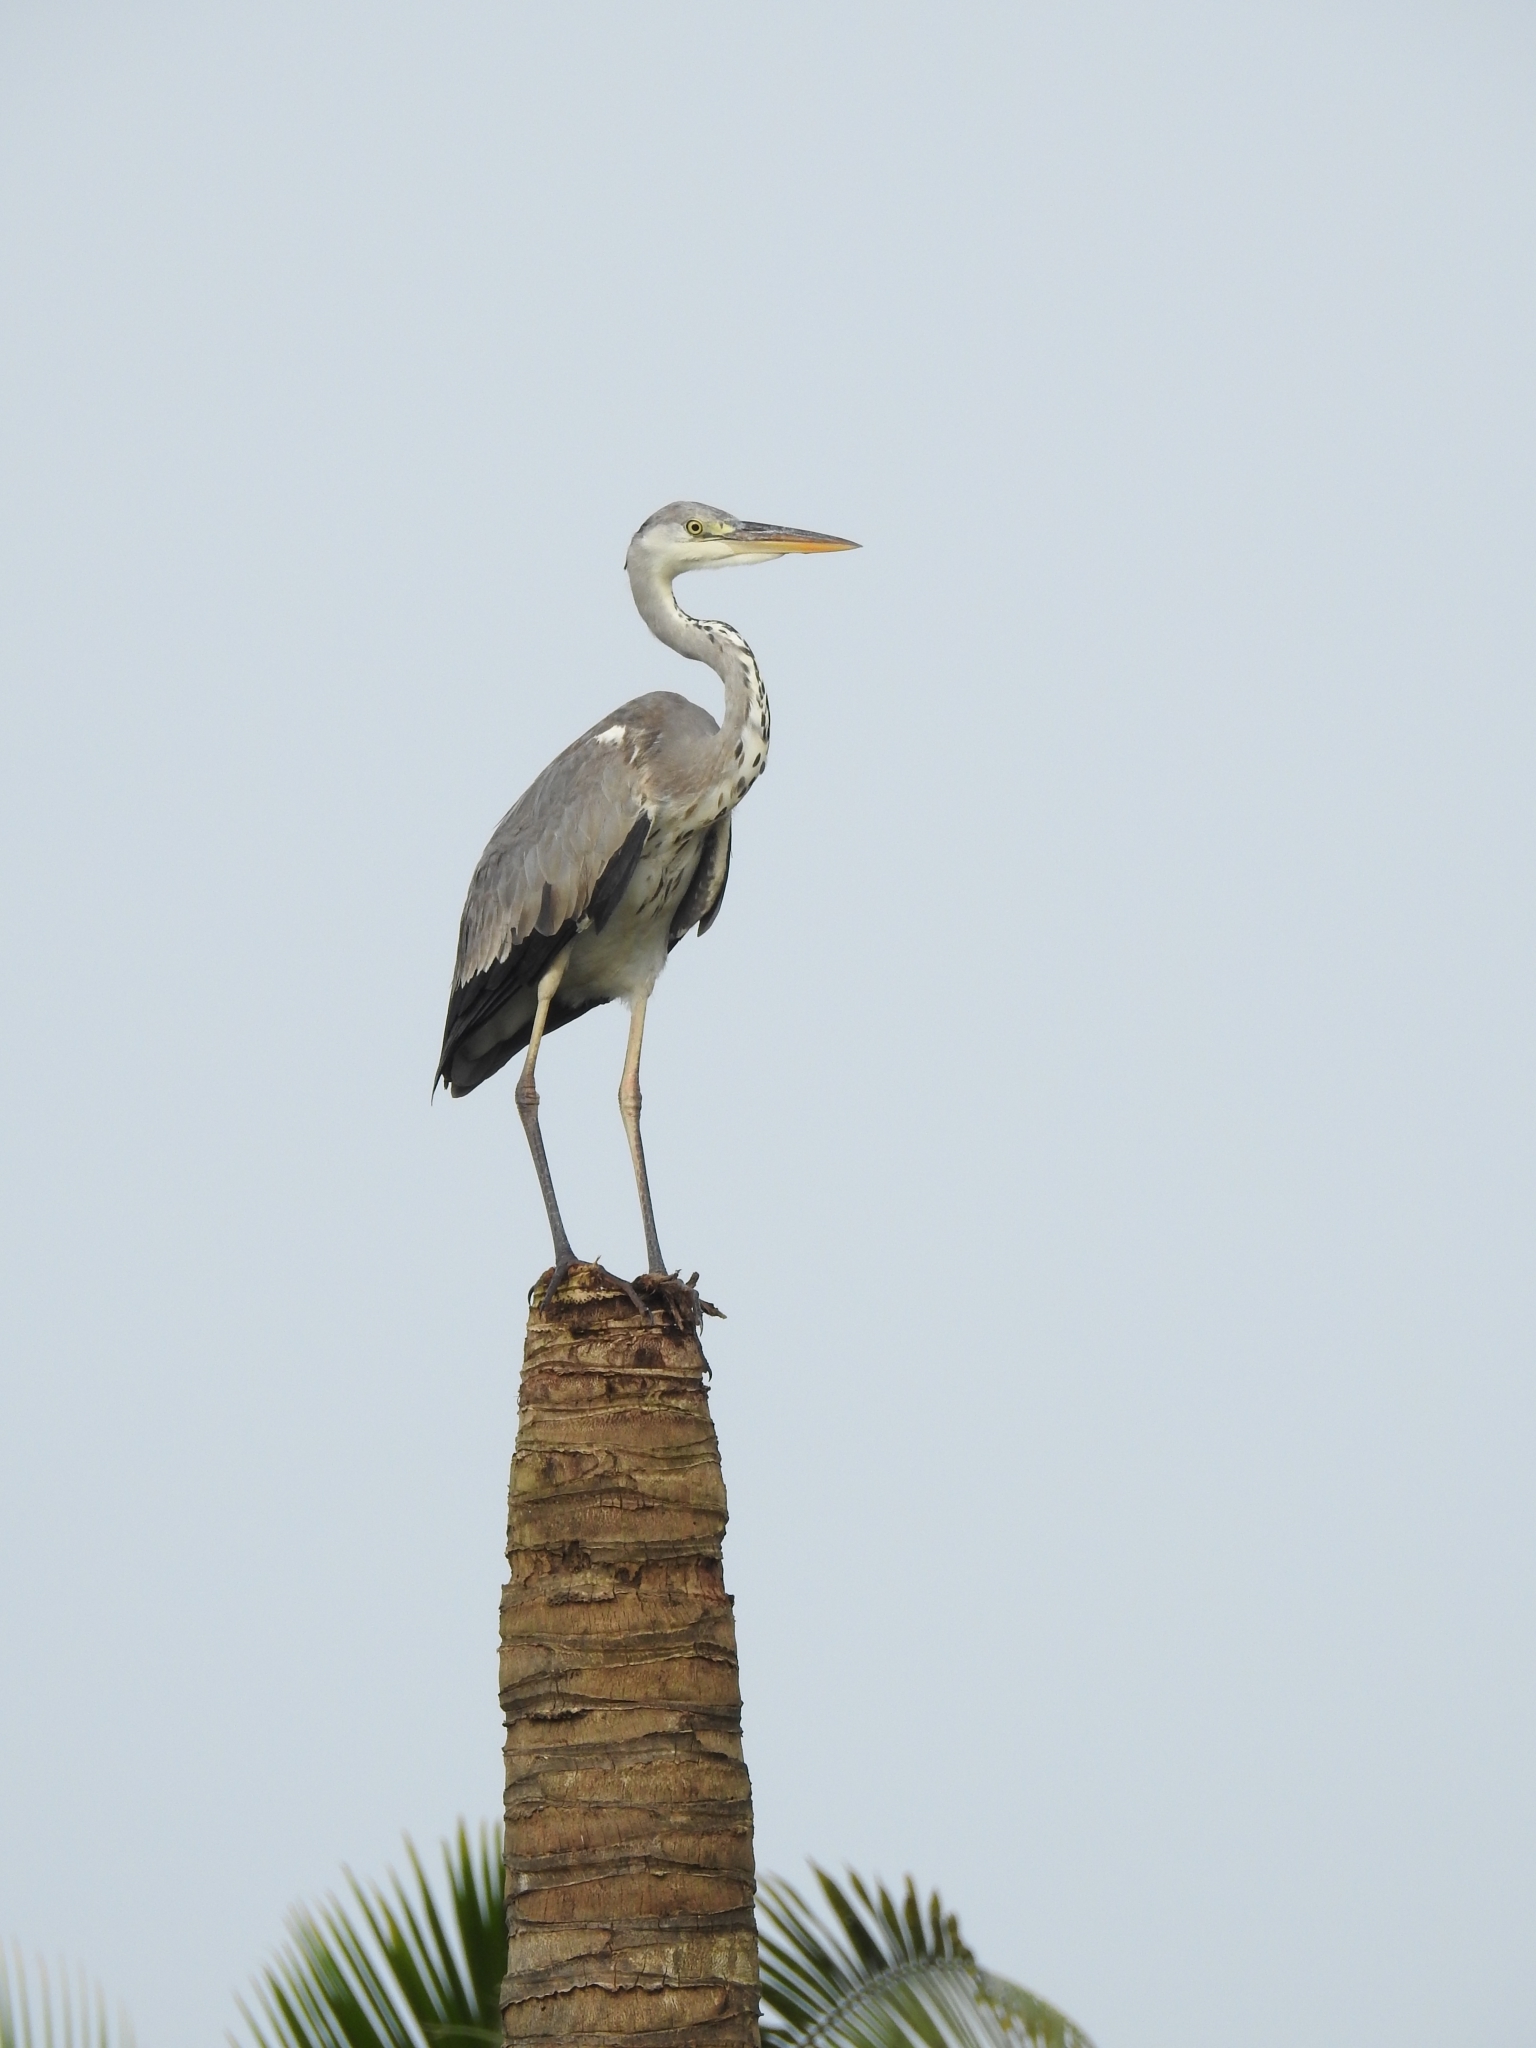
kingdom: Animalia
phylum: Chordata
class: Aves
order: Pelecaniformes
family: Ardeidae
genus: Ardea
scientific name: Ardea cinerea
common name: Grey heron
